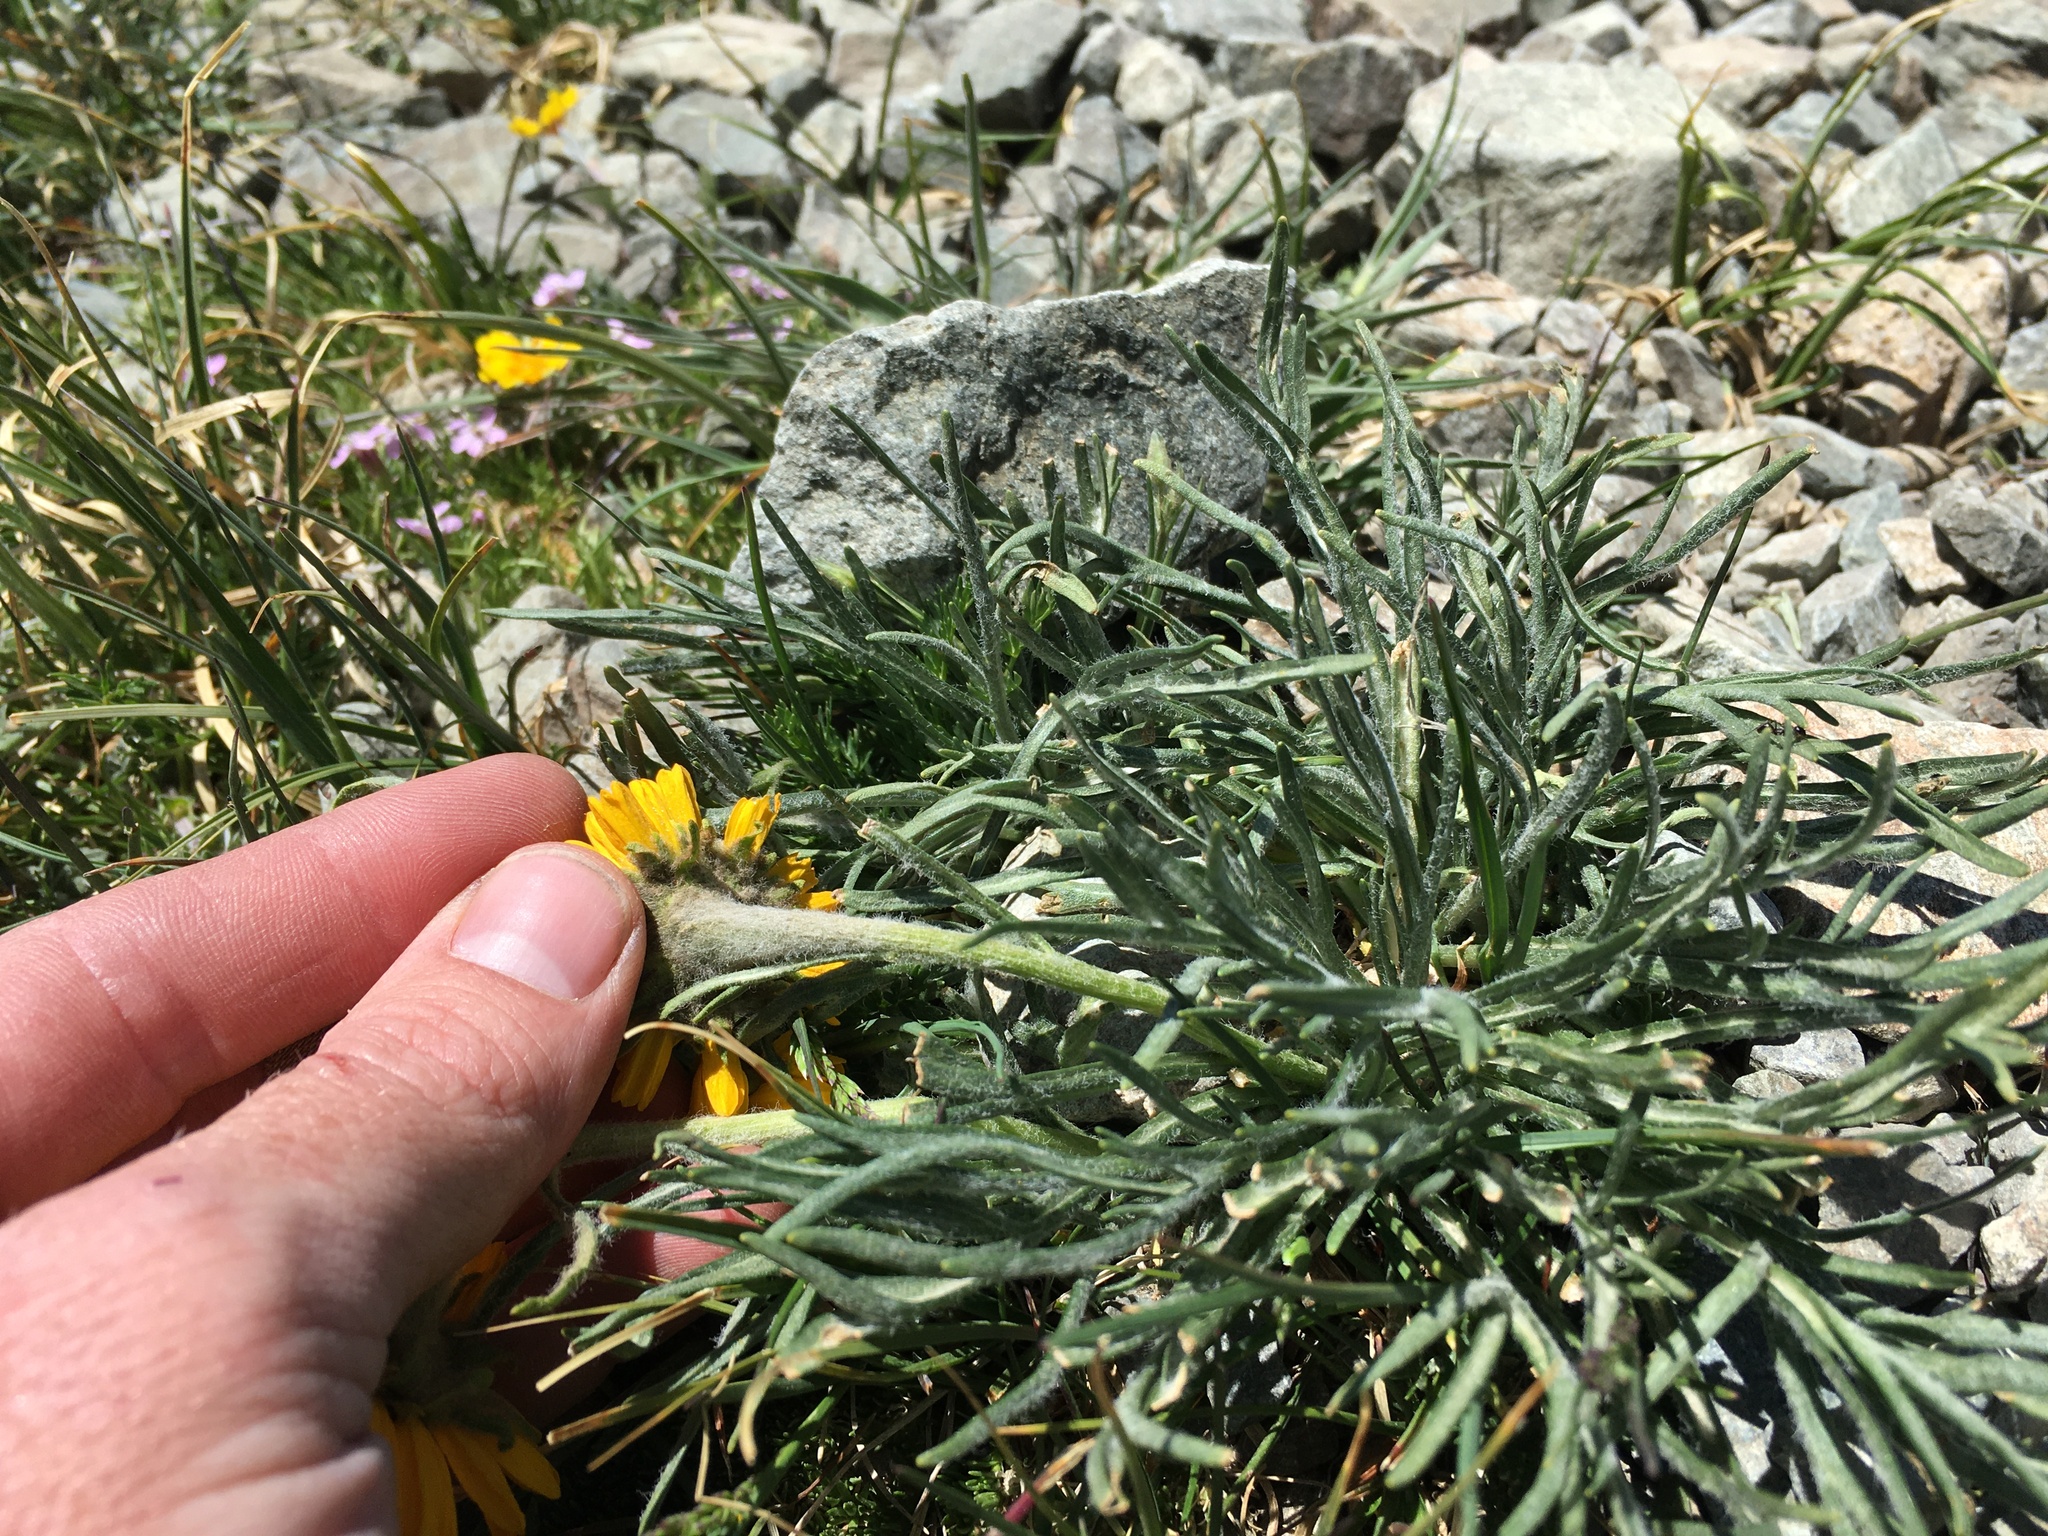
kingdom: Plantae
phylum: Tracheophyta
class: Magnoliopsida
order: Asterales
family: Asteraceae
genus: Hymenoxys
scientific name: Hymenoxys brandegeei
